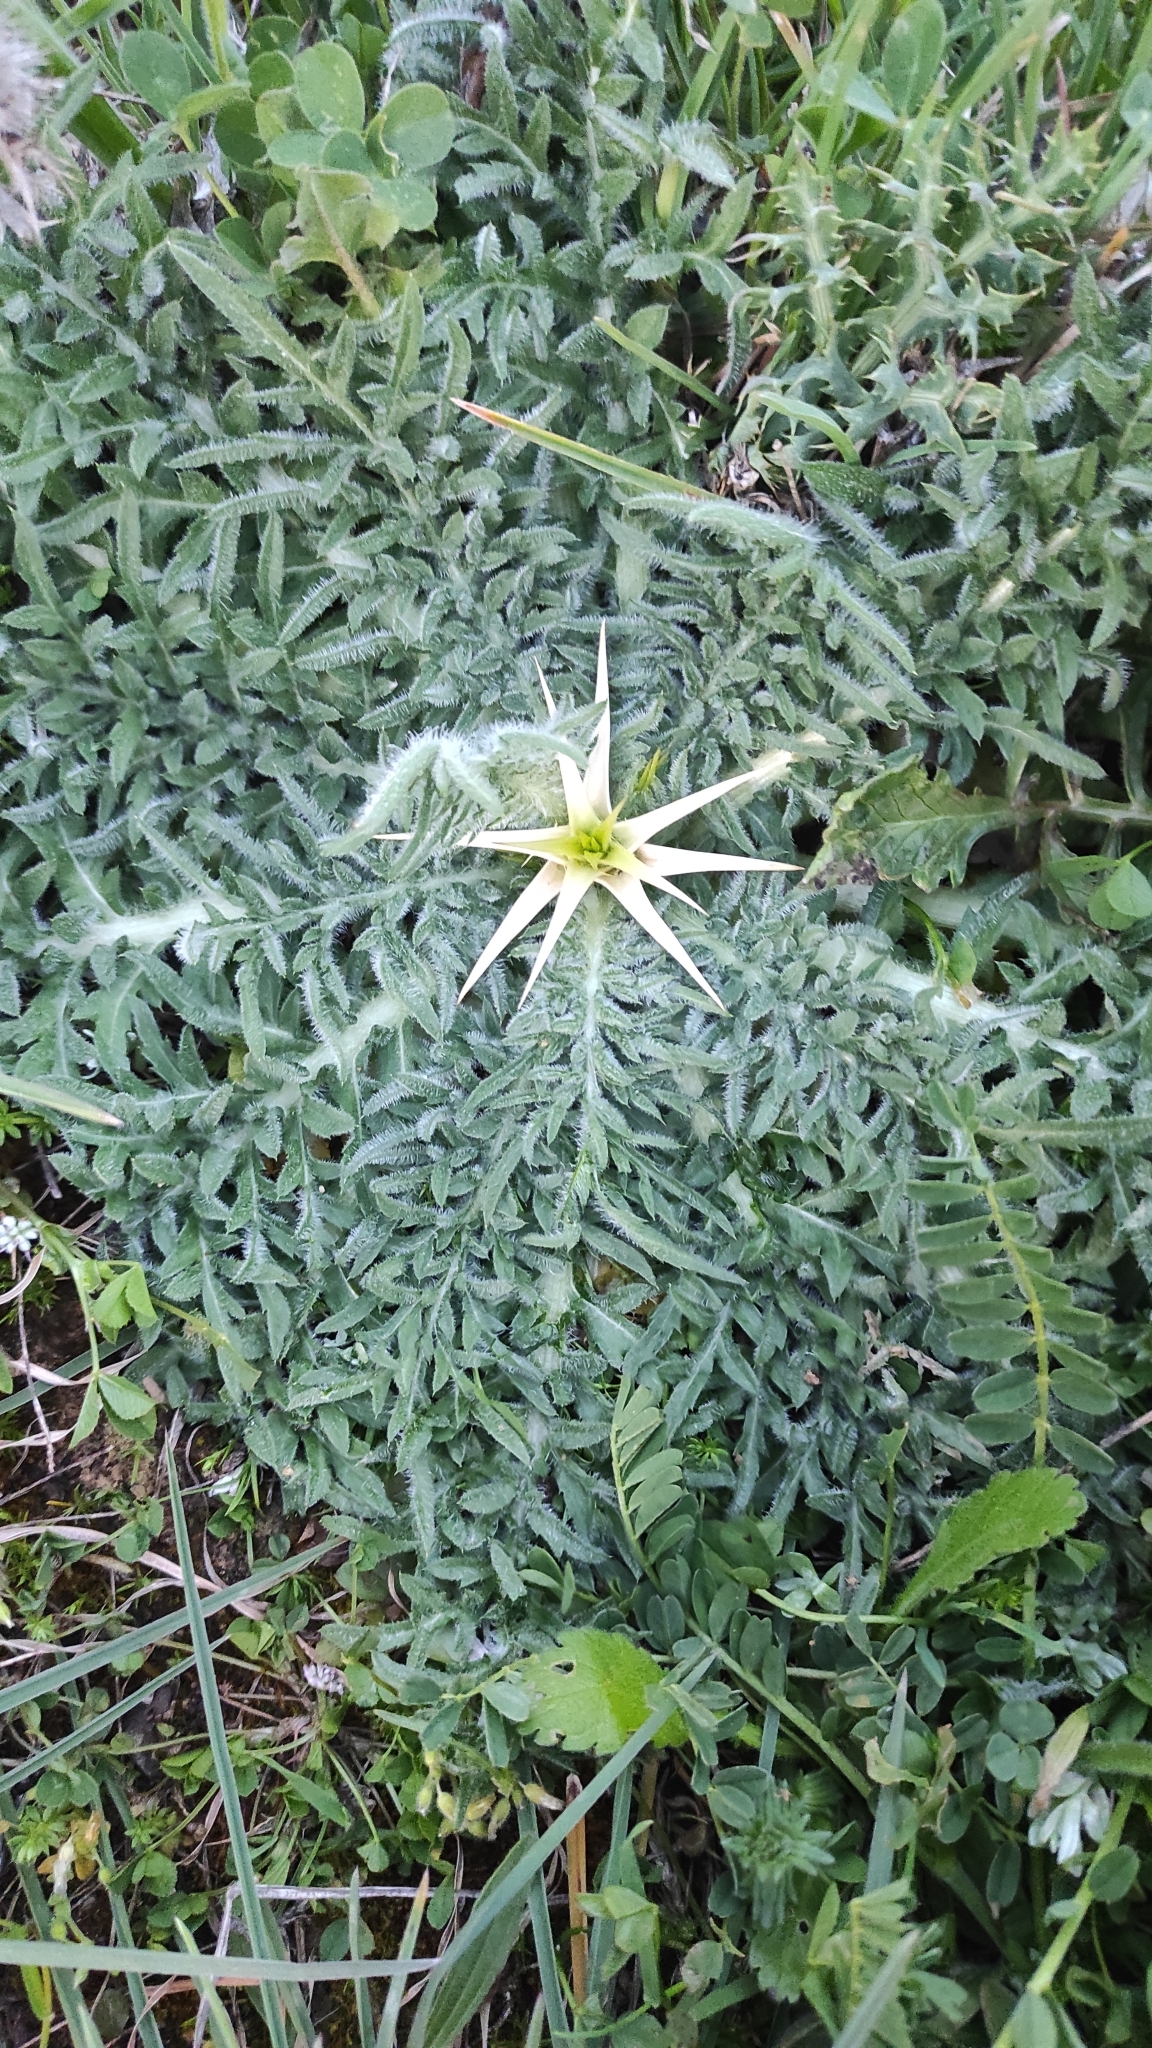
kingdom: Plantae
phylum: Tracheophyta
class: Magnoliopsida
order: Asterales
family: Asteraceae
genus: Centaurea
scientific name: Centaurea calcitrapa
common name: Red star-thistle
